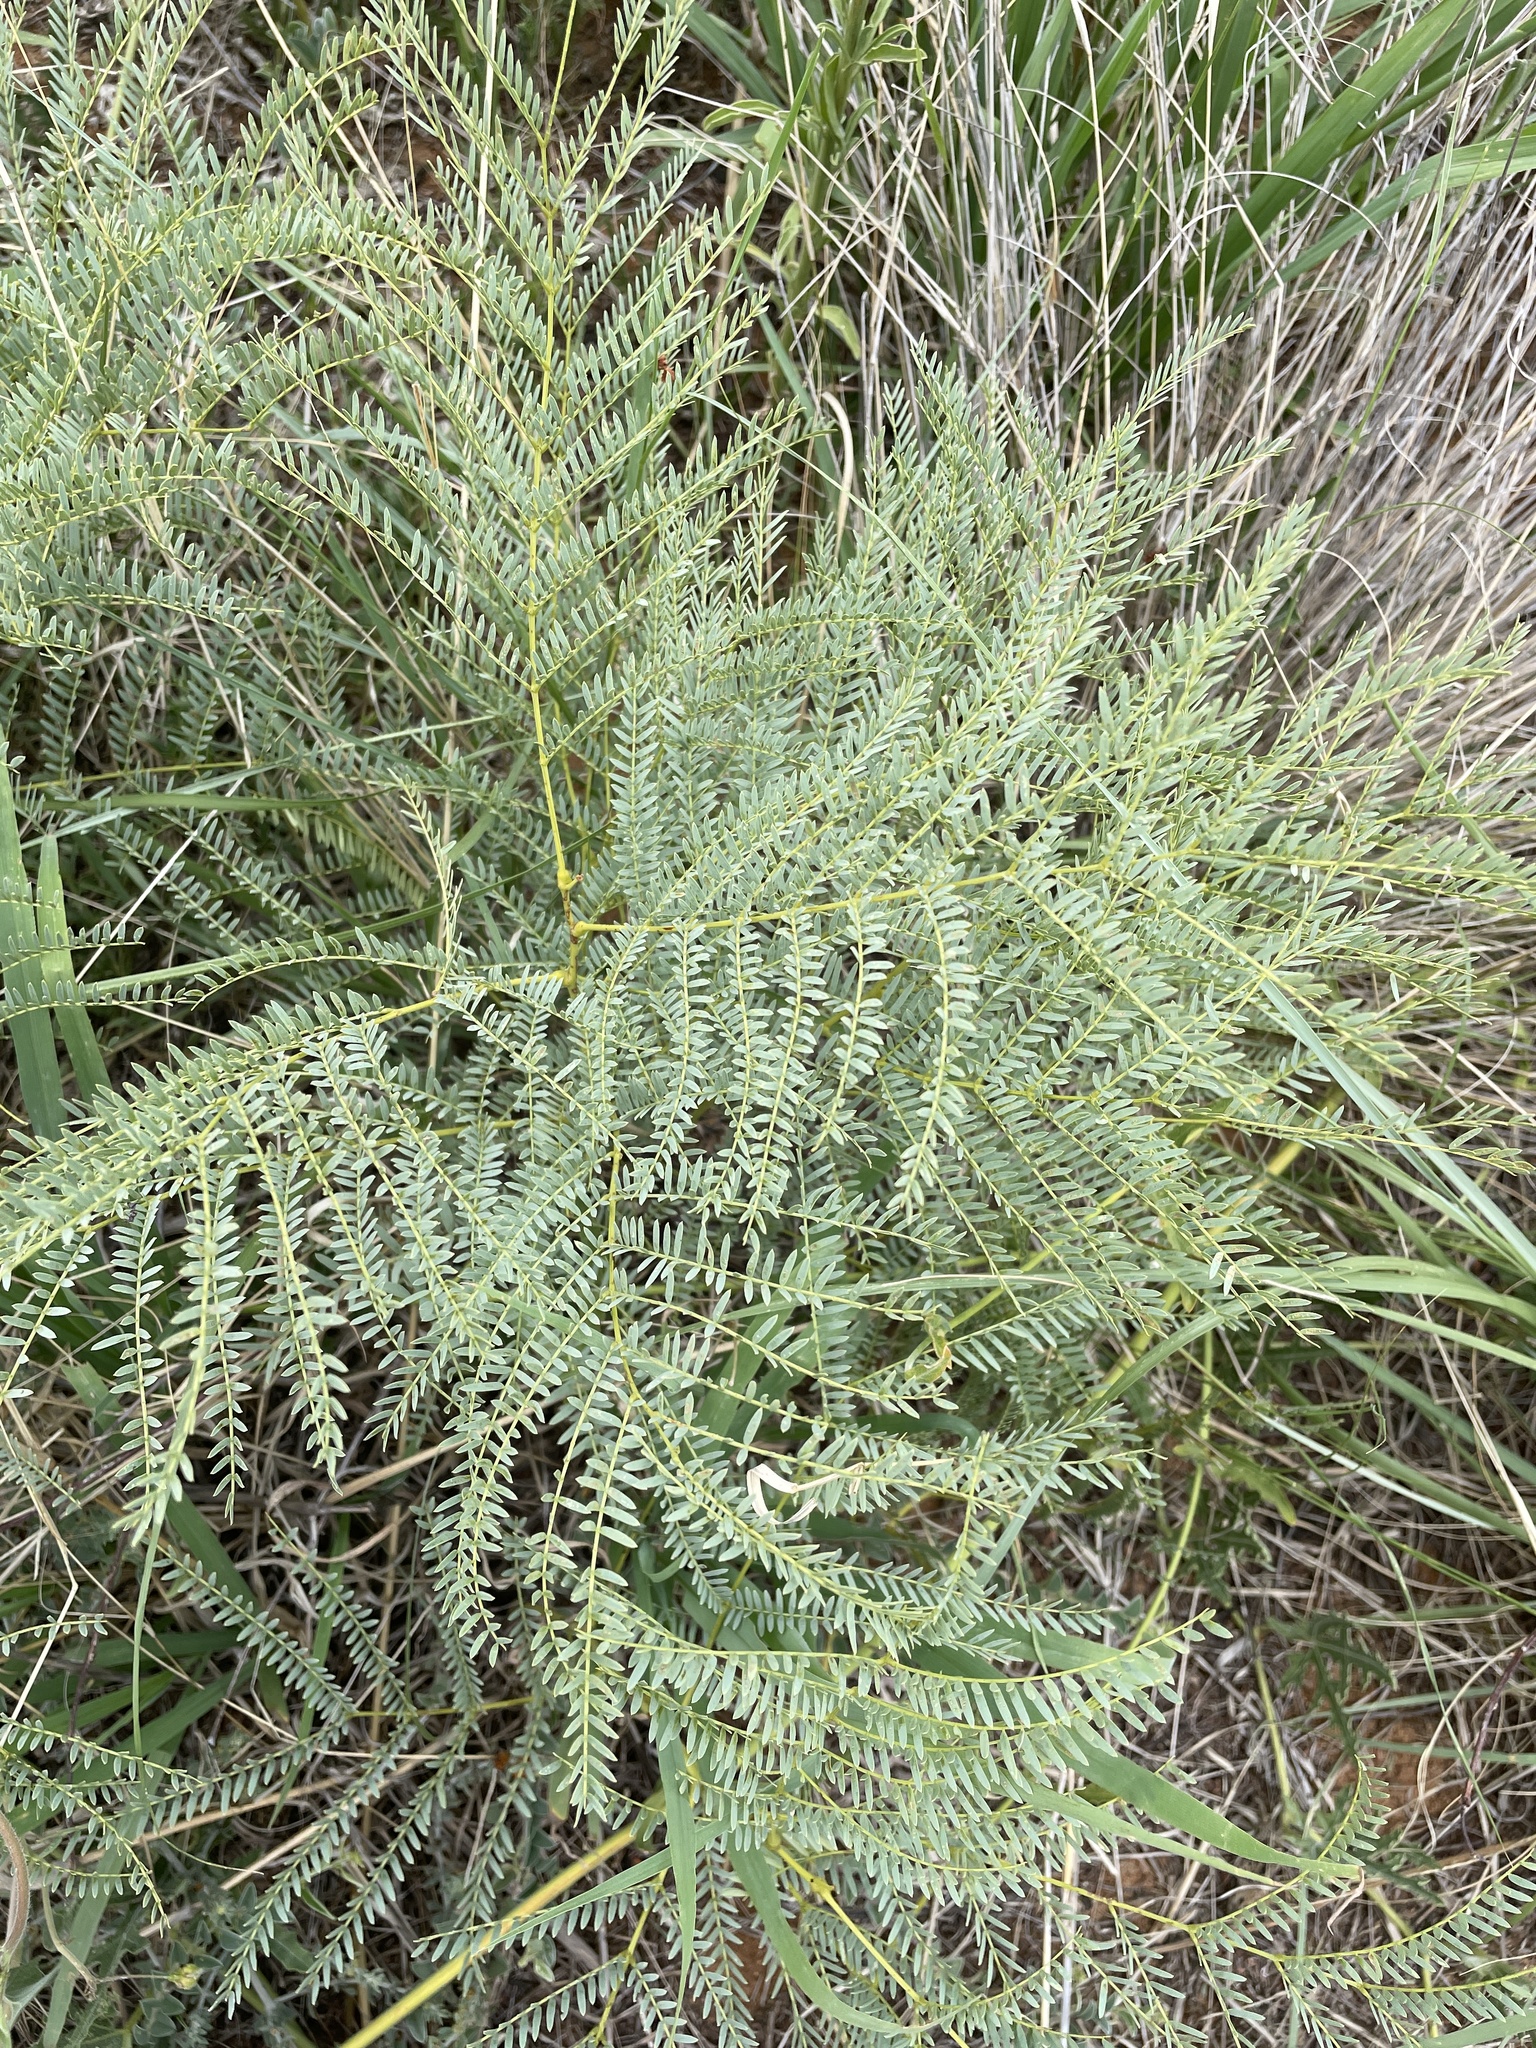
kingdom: Plantae
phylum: Tracheophyta
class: Magnoliopsida
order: Fabales
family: Fabaceae
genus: Elephantorrhiza
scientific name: Elephantorrhiza elephantina
